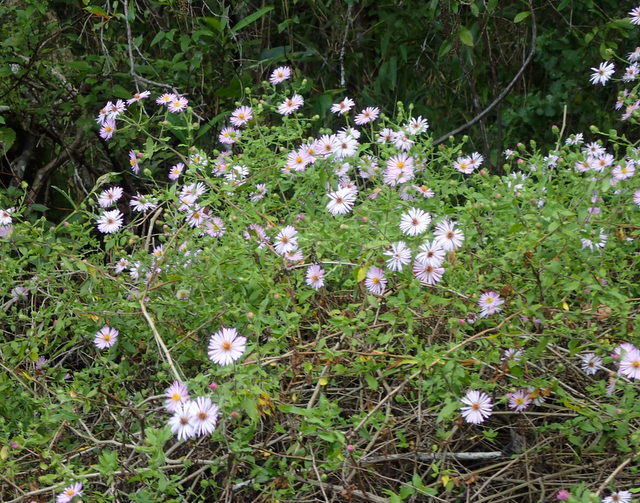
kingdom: Plantae
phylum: Tracheophyta
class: Magnoliopsida
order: Asterales
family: Asteraceae
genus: Ampelaster
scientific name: Ampelaster carolinianus
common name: Climbing aster
